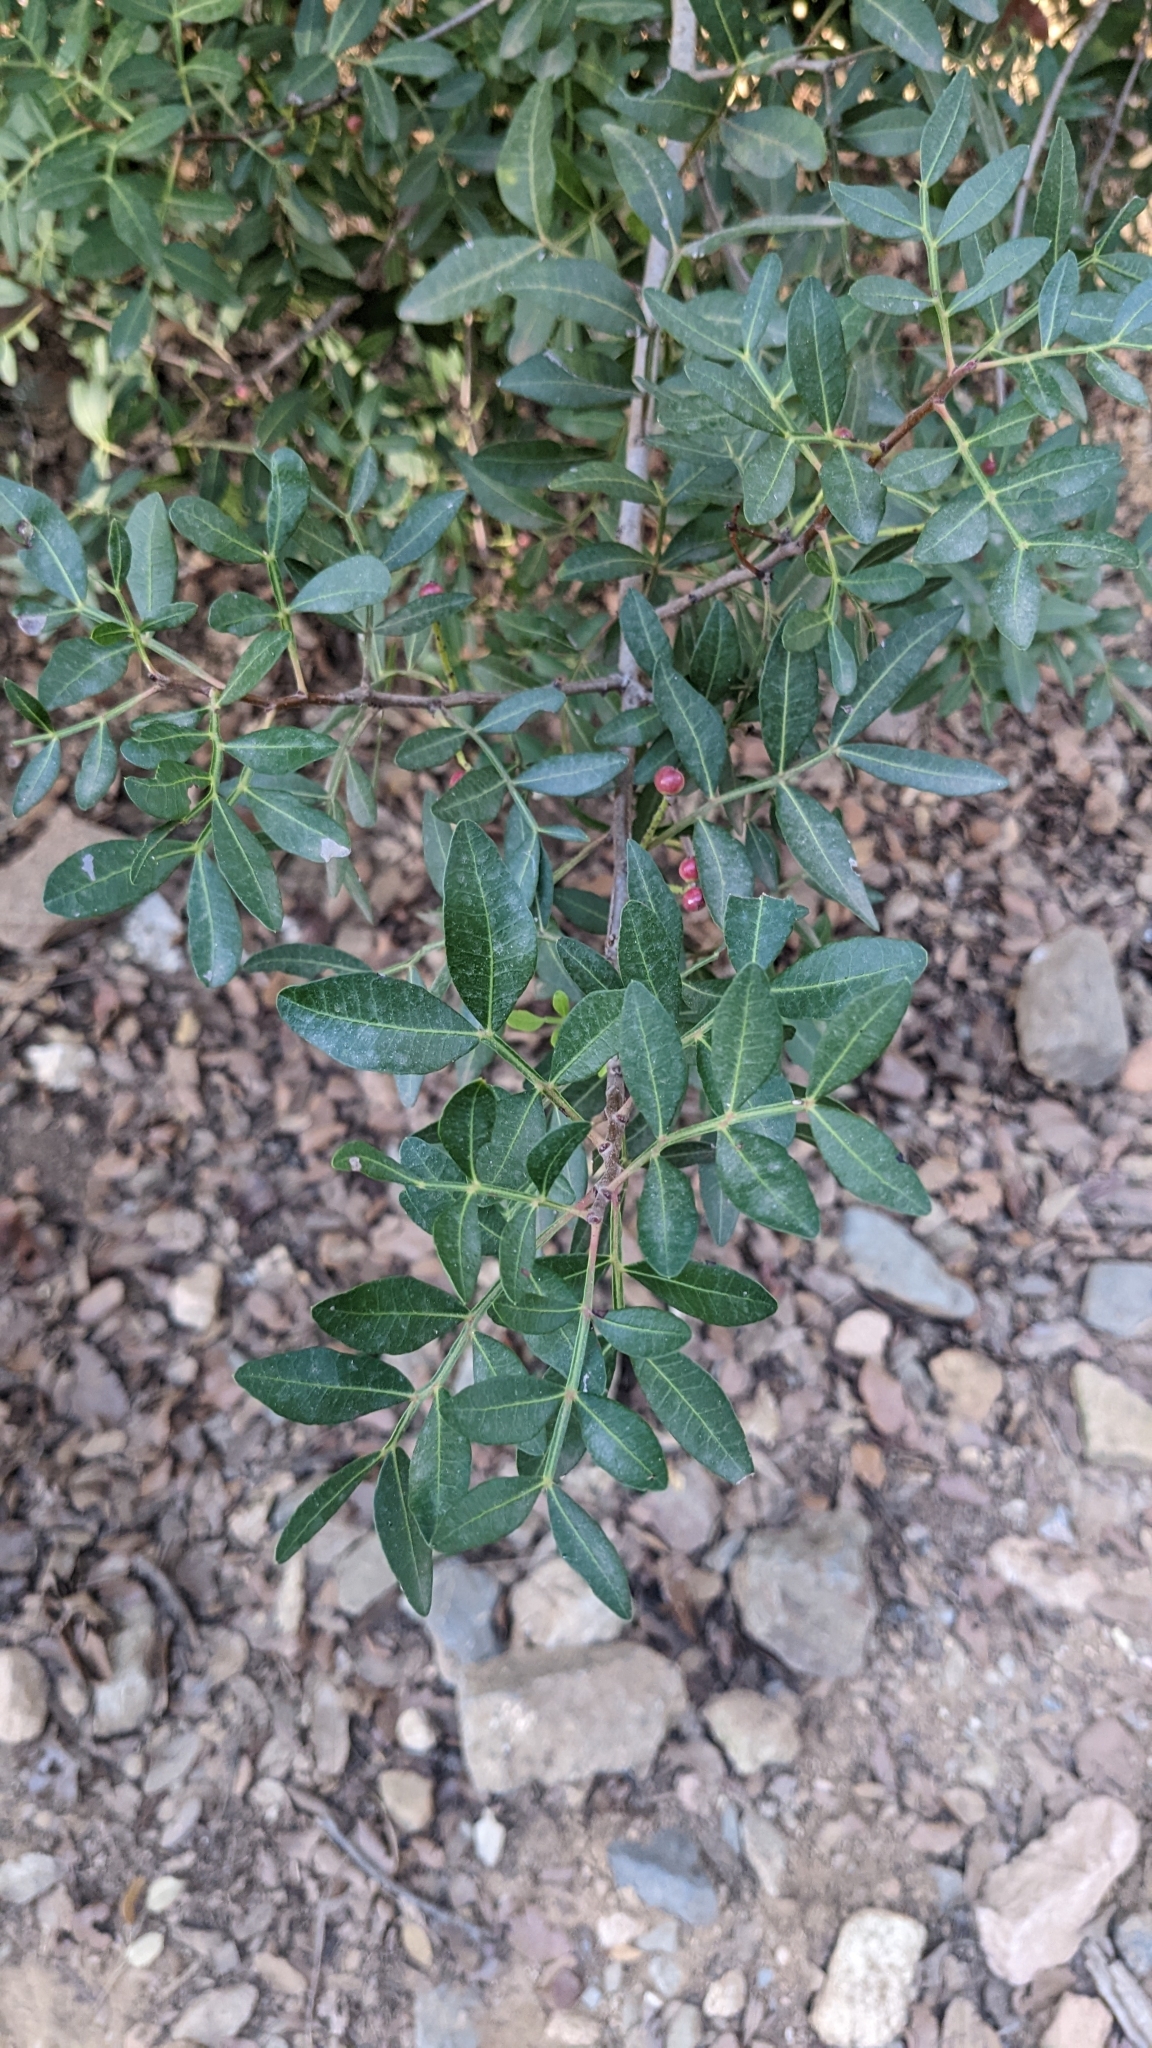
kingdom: Plantae
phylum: Tracheophyta
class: Magnoliopsida
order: Sapindales
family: Anacardiaceae
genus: Pistacia
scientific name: Pistacia lentiscus
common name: Lentisk
